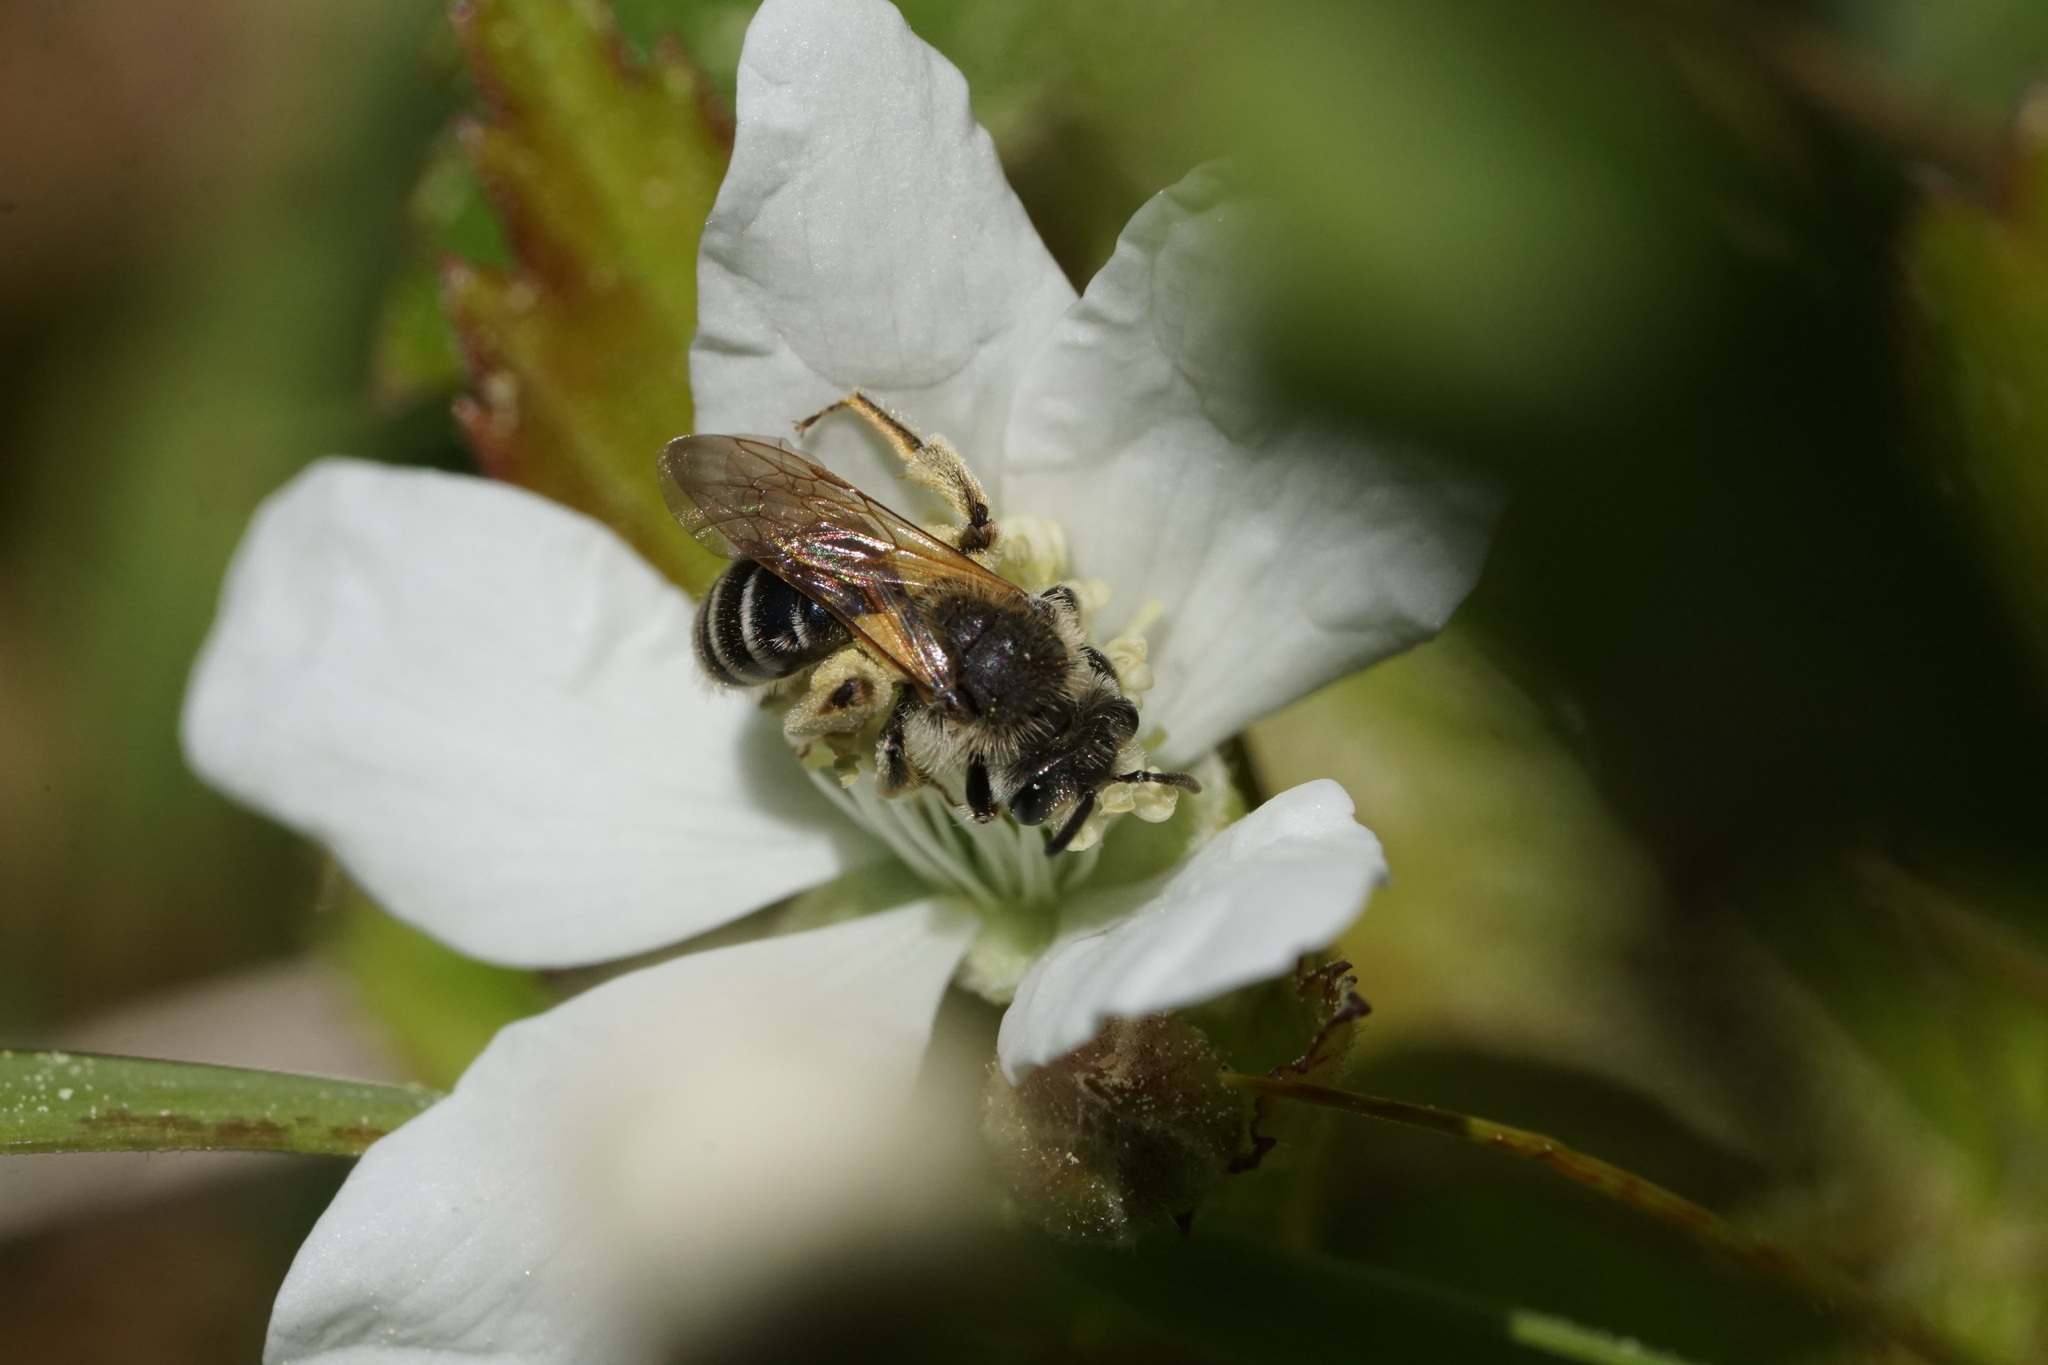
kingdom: Animalia
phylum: Arthropoda
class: Insecta
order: Hymenoptera
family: Andrenidae
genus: Andrena
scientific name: Andrena nasonii
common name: Nason's mining bee
